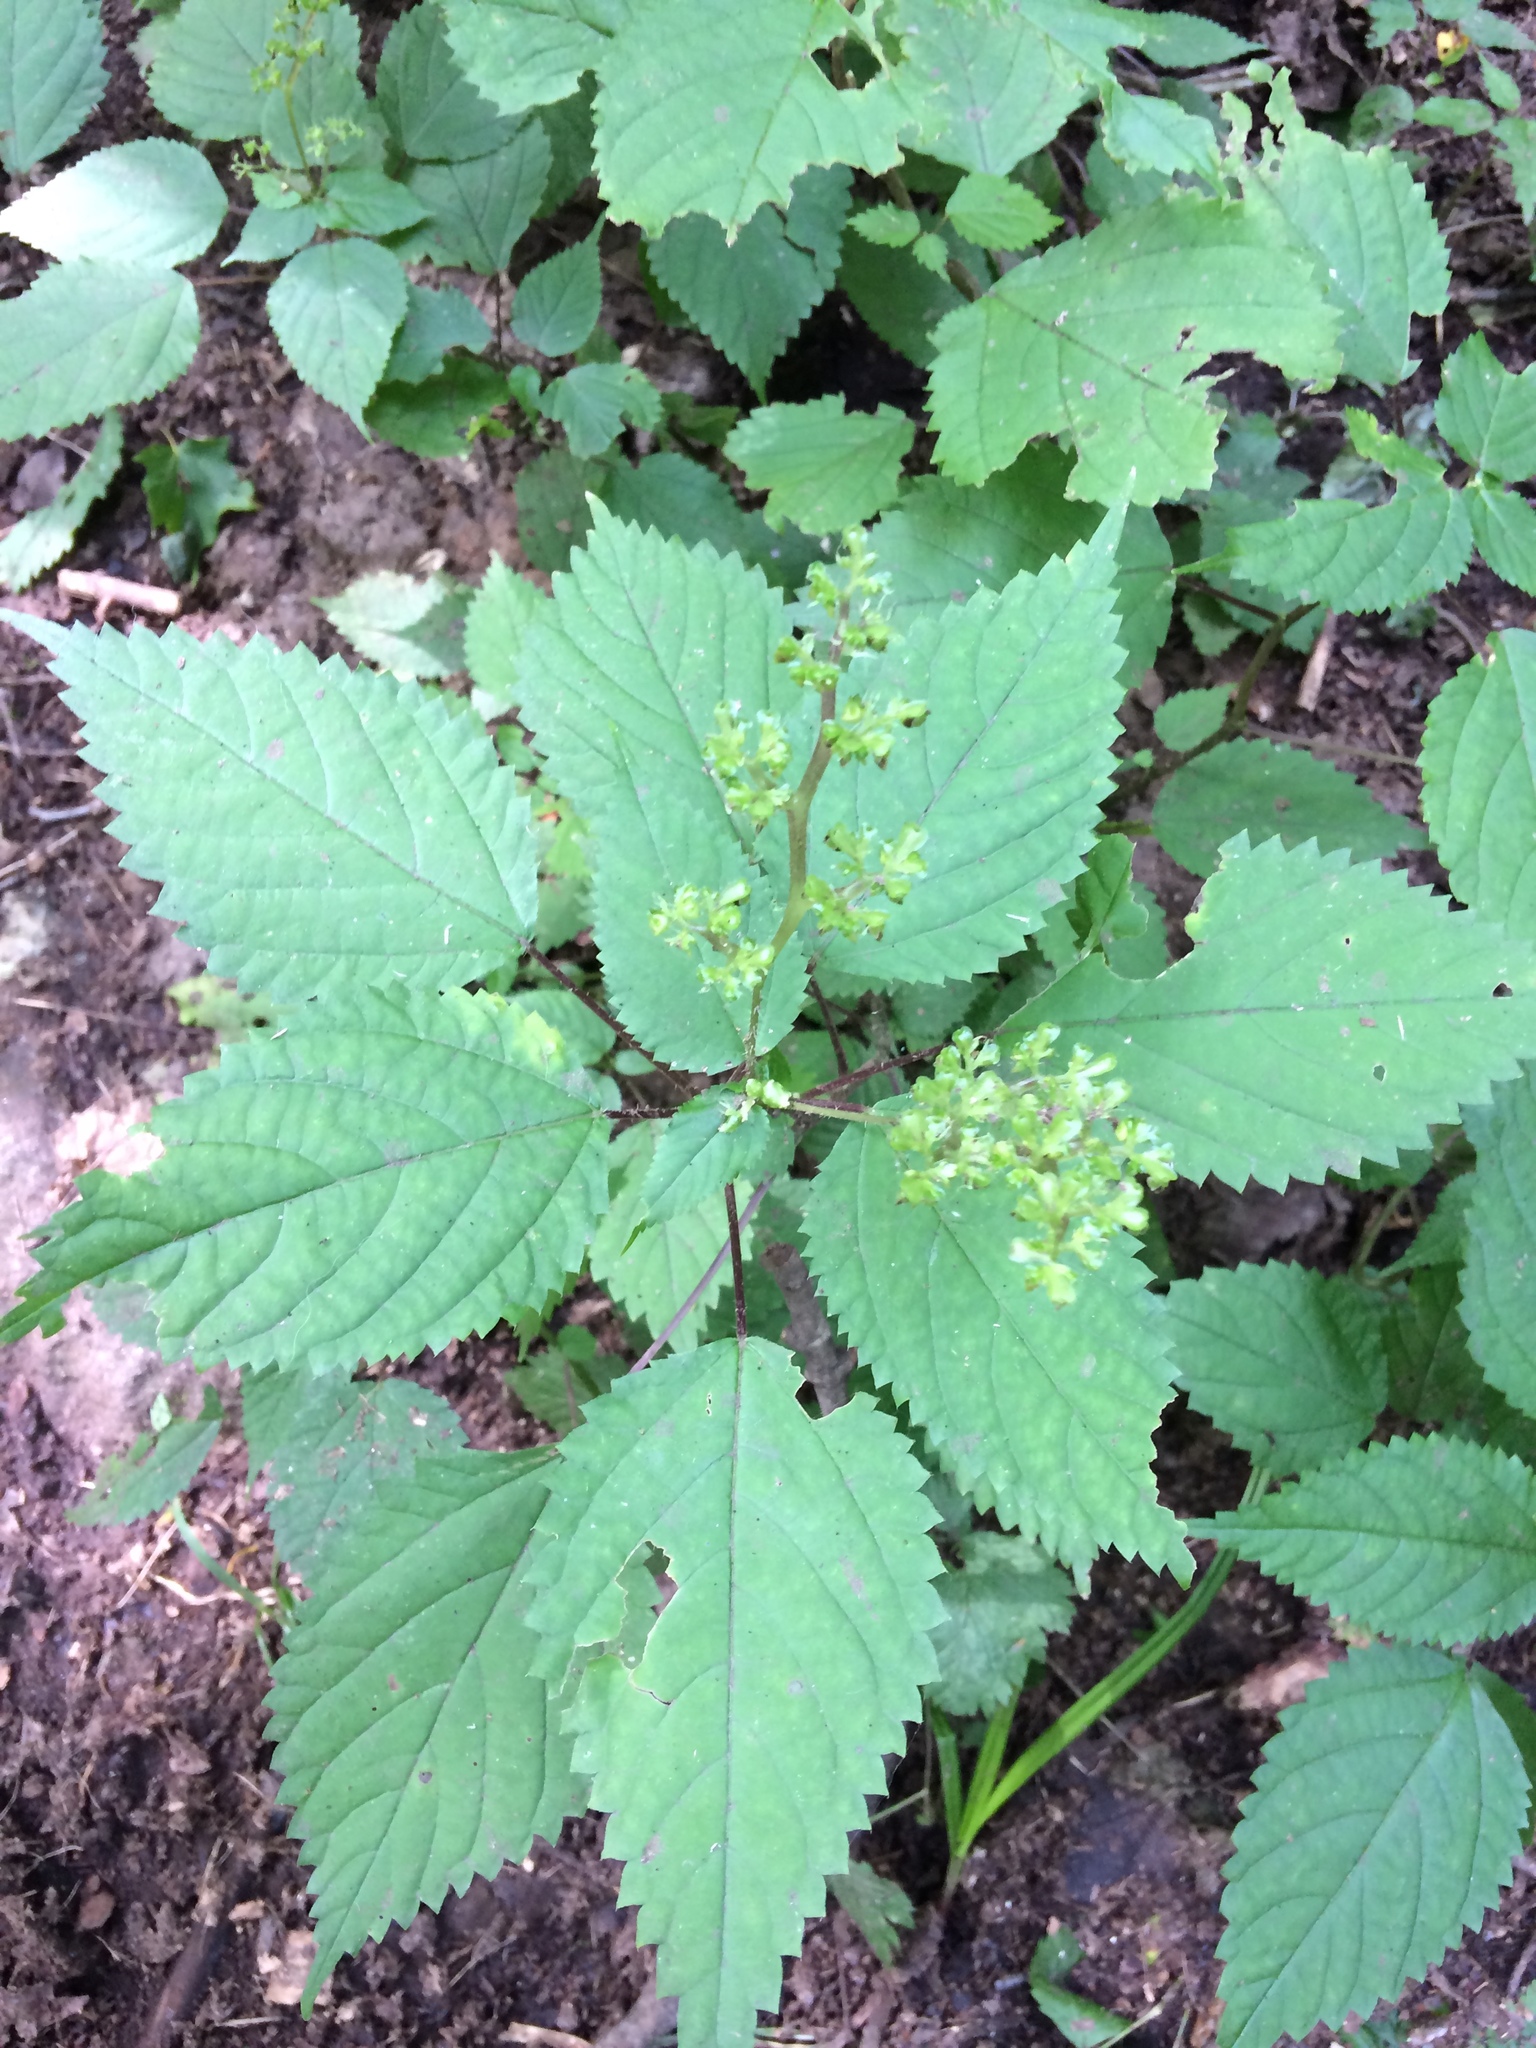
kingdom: Plantae
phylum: Tracheophyta
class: Magnoliopsida
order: Rosales
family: Urticaceae
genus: Boehmeria
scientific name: Boehmeria cylindrica
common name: Bog-hemp
